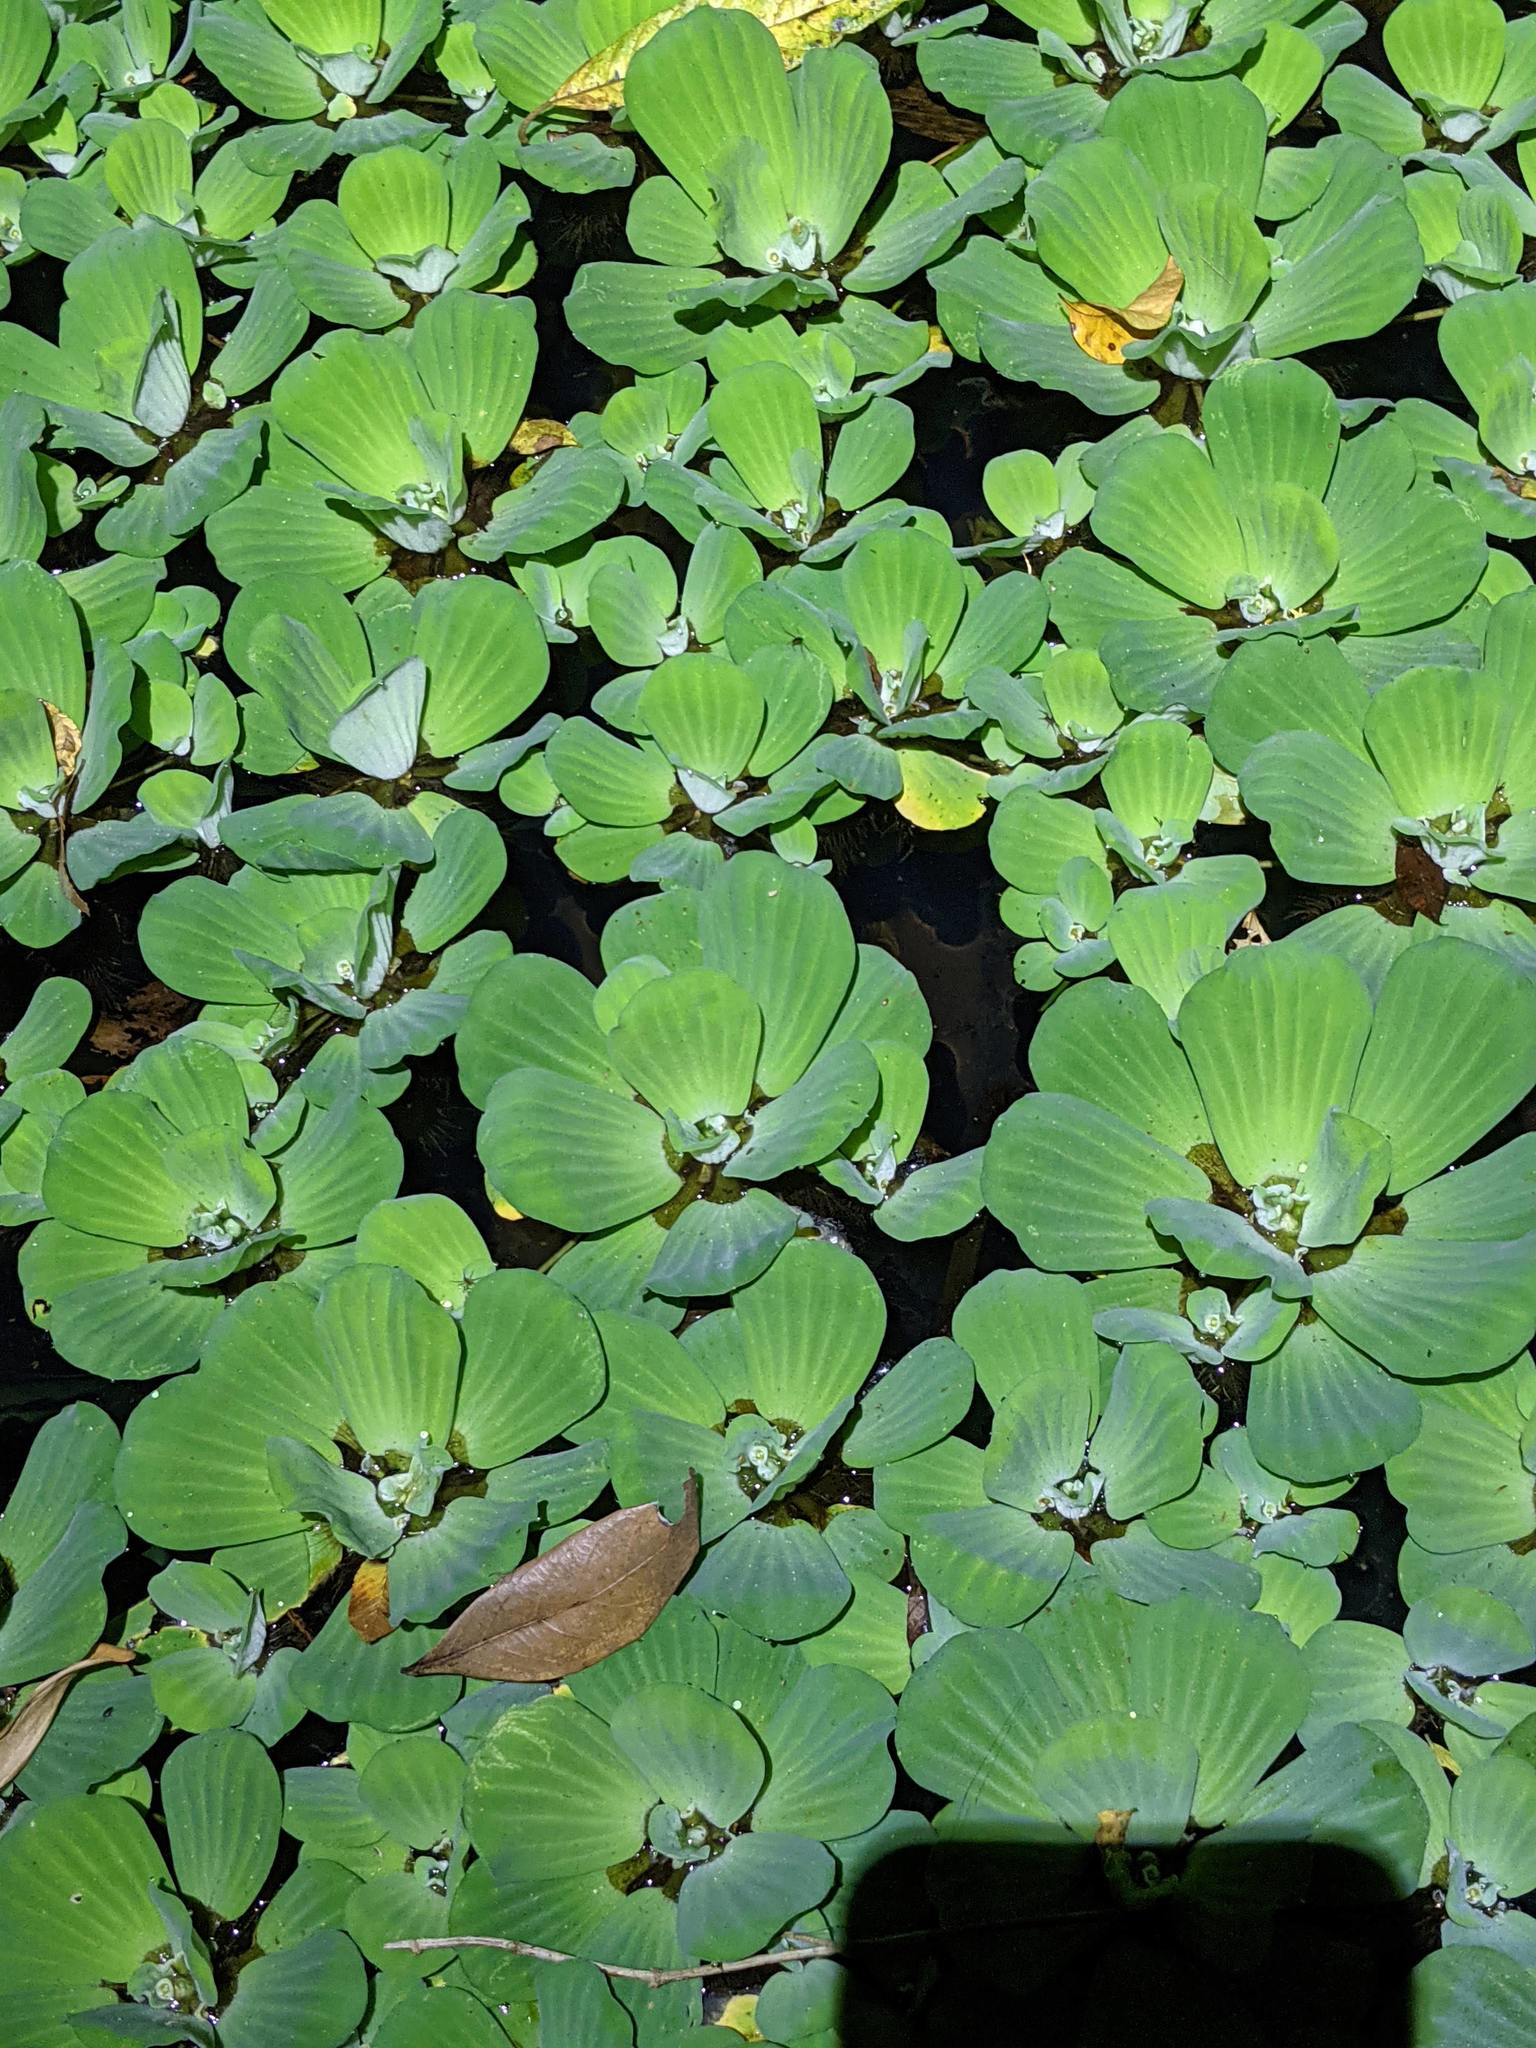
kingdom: Plantae
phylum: Tracheophyta
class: Liliopsida
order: Alismatales
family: Araceae
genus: Pistia
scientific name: Pistia stratiotes
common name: Water lettuce
